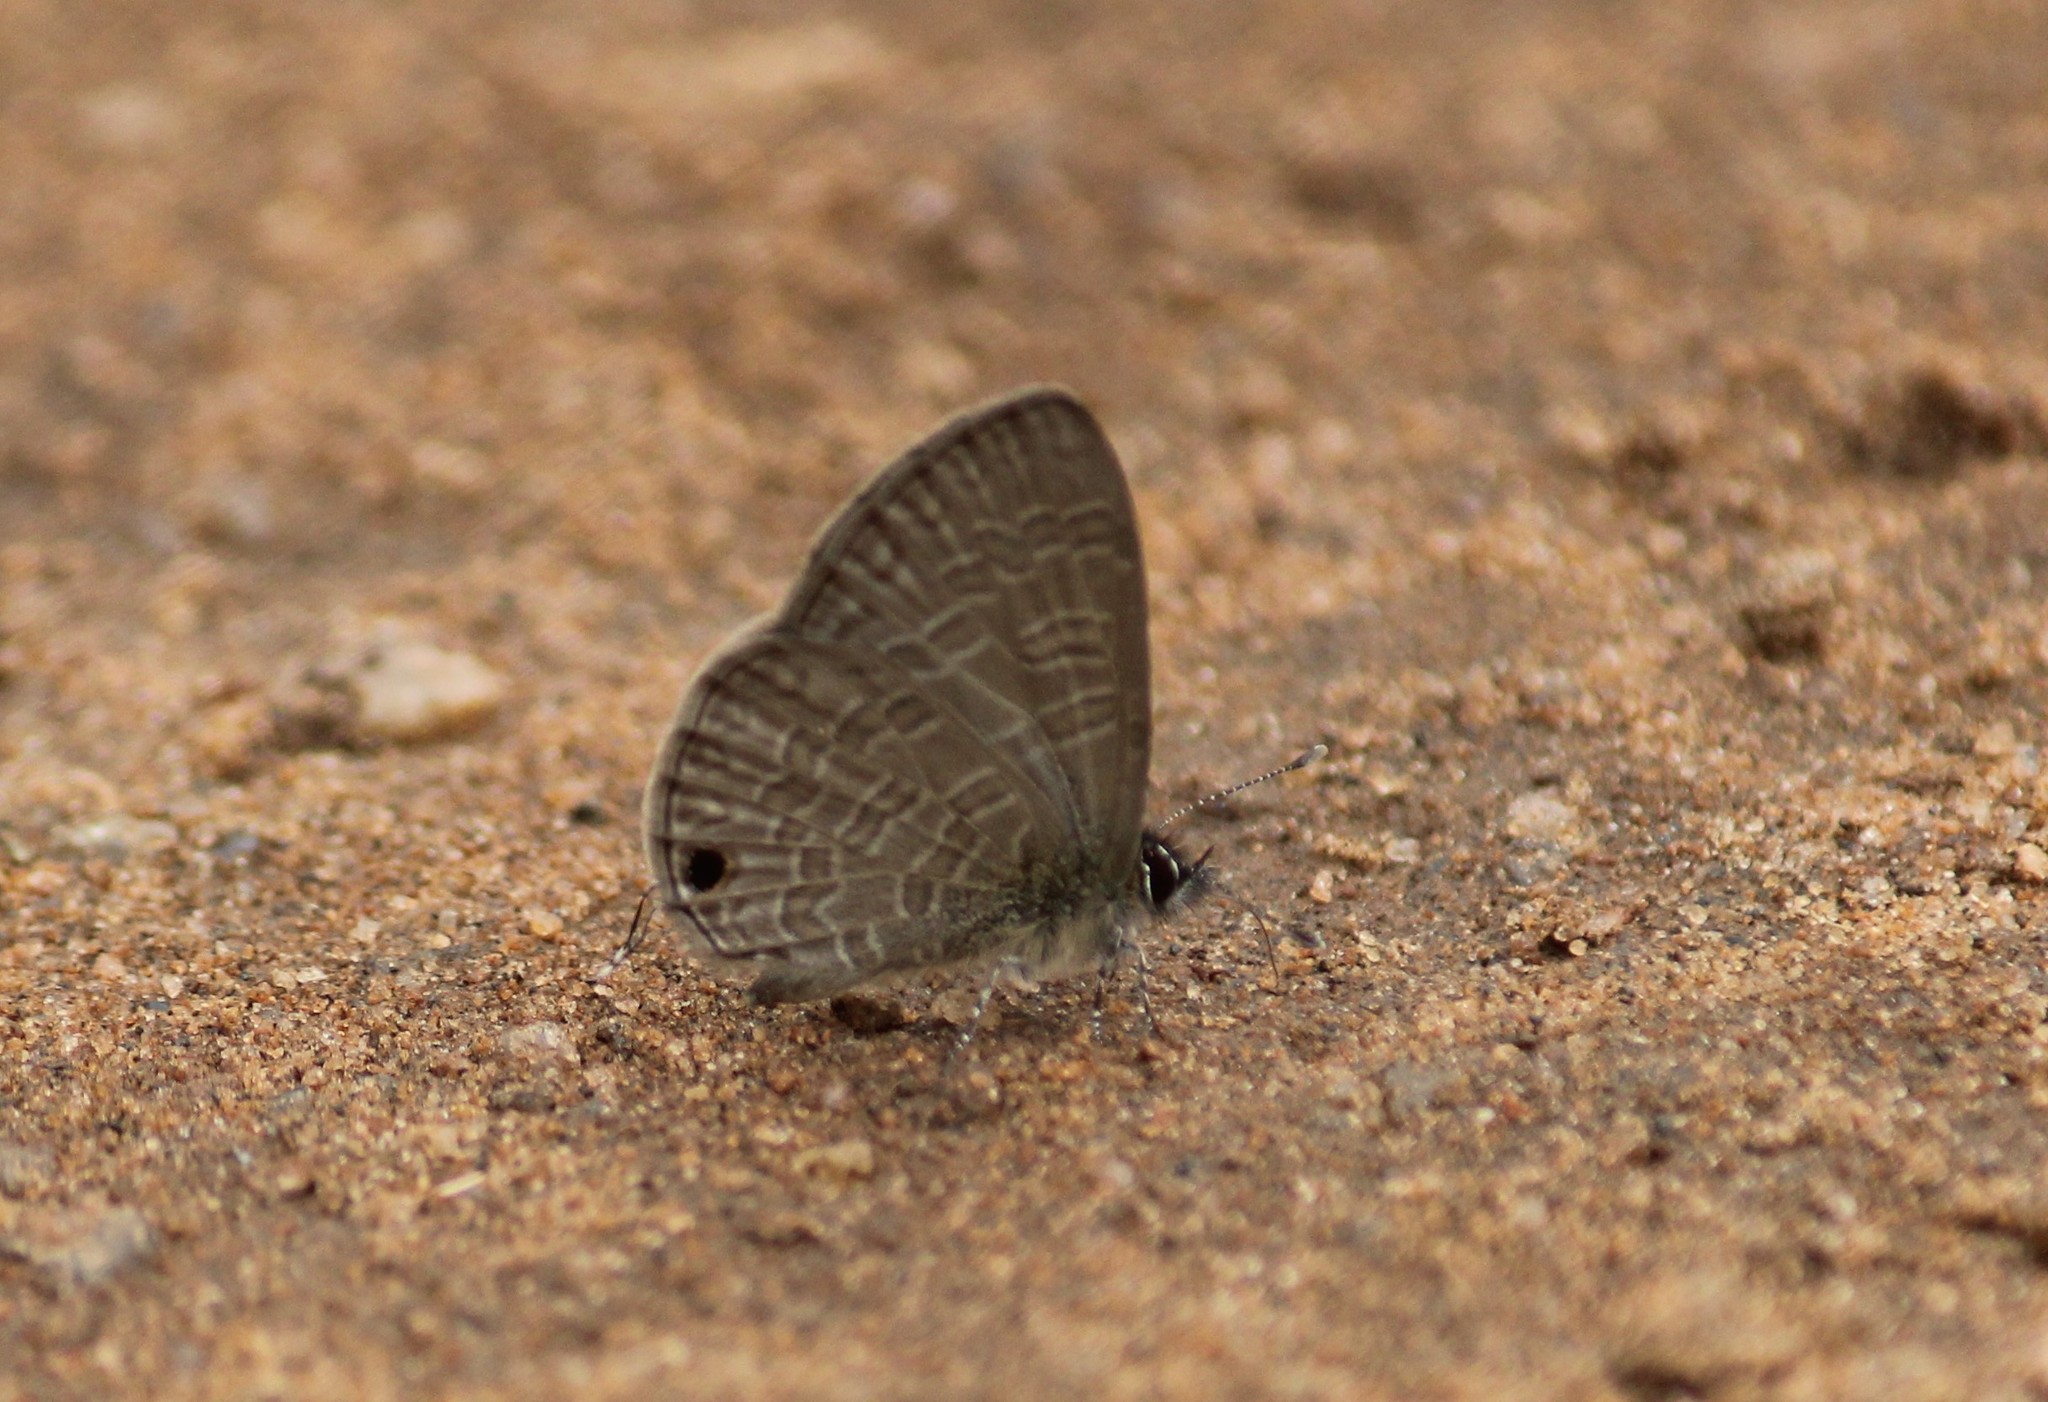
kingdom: Animalia
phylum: Arthropoda
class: Insecta
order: Lepidoptera
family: Lycaenidae
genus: Prosotas
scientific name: Prosotas nora
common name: Common line blue
